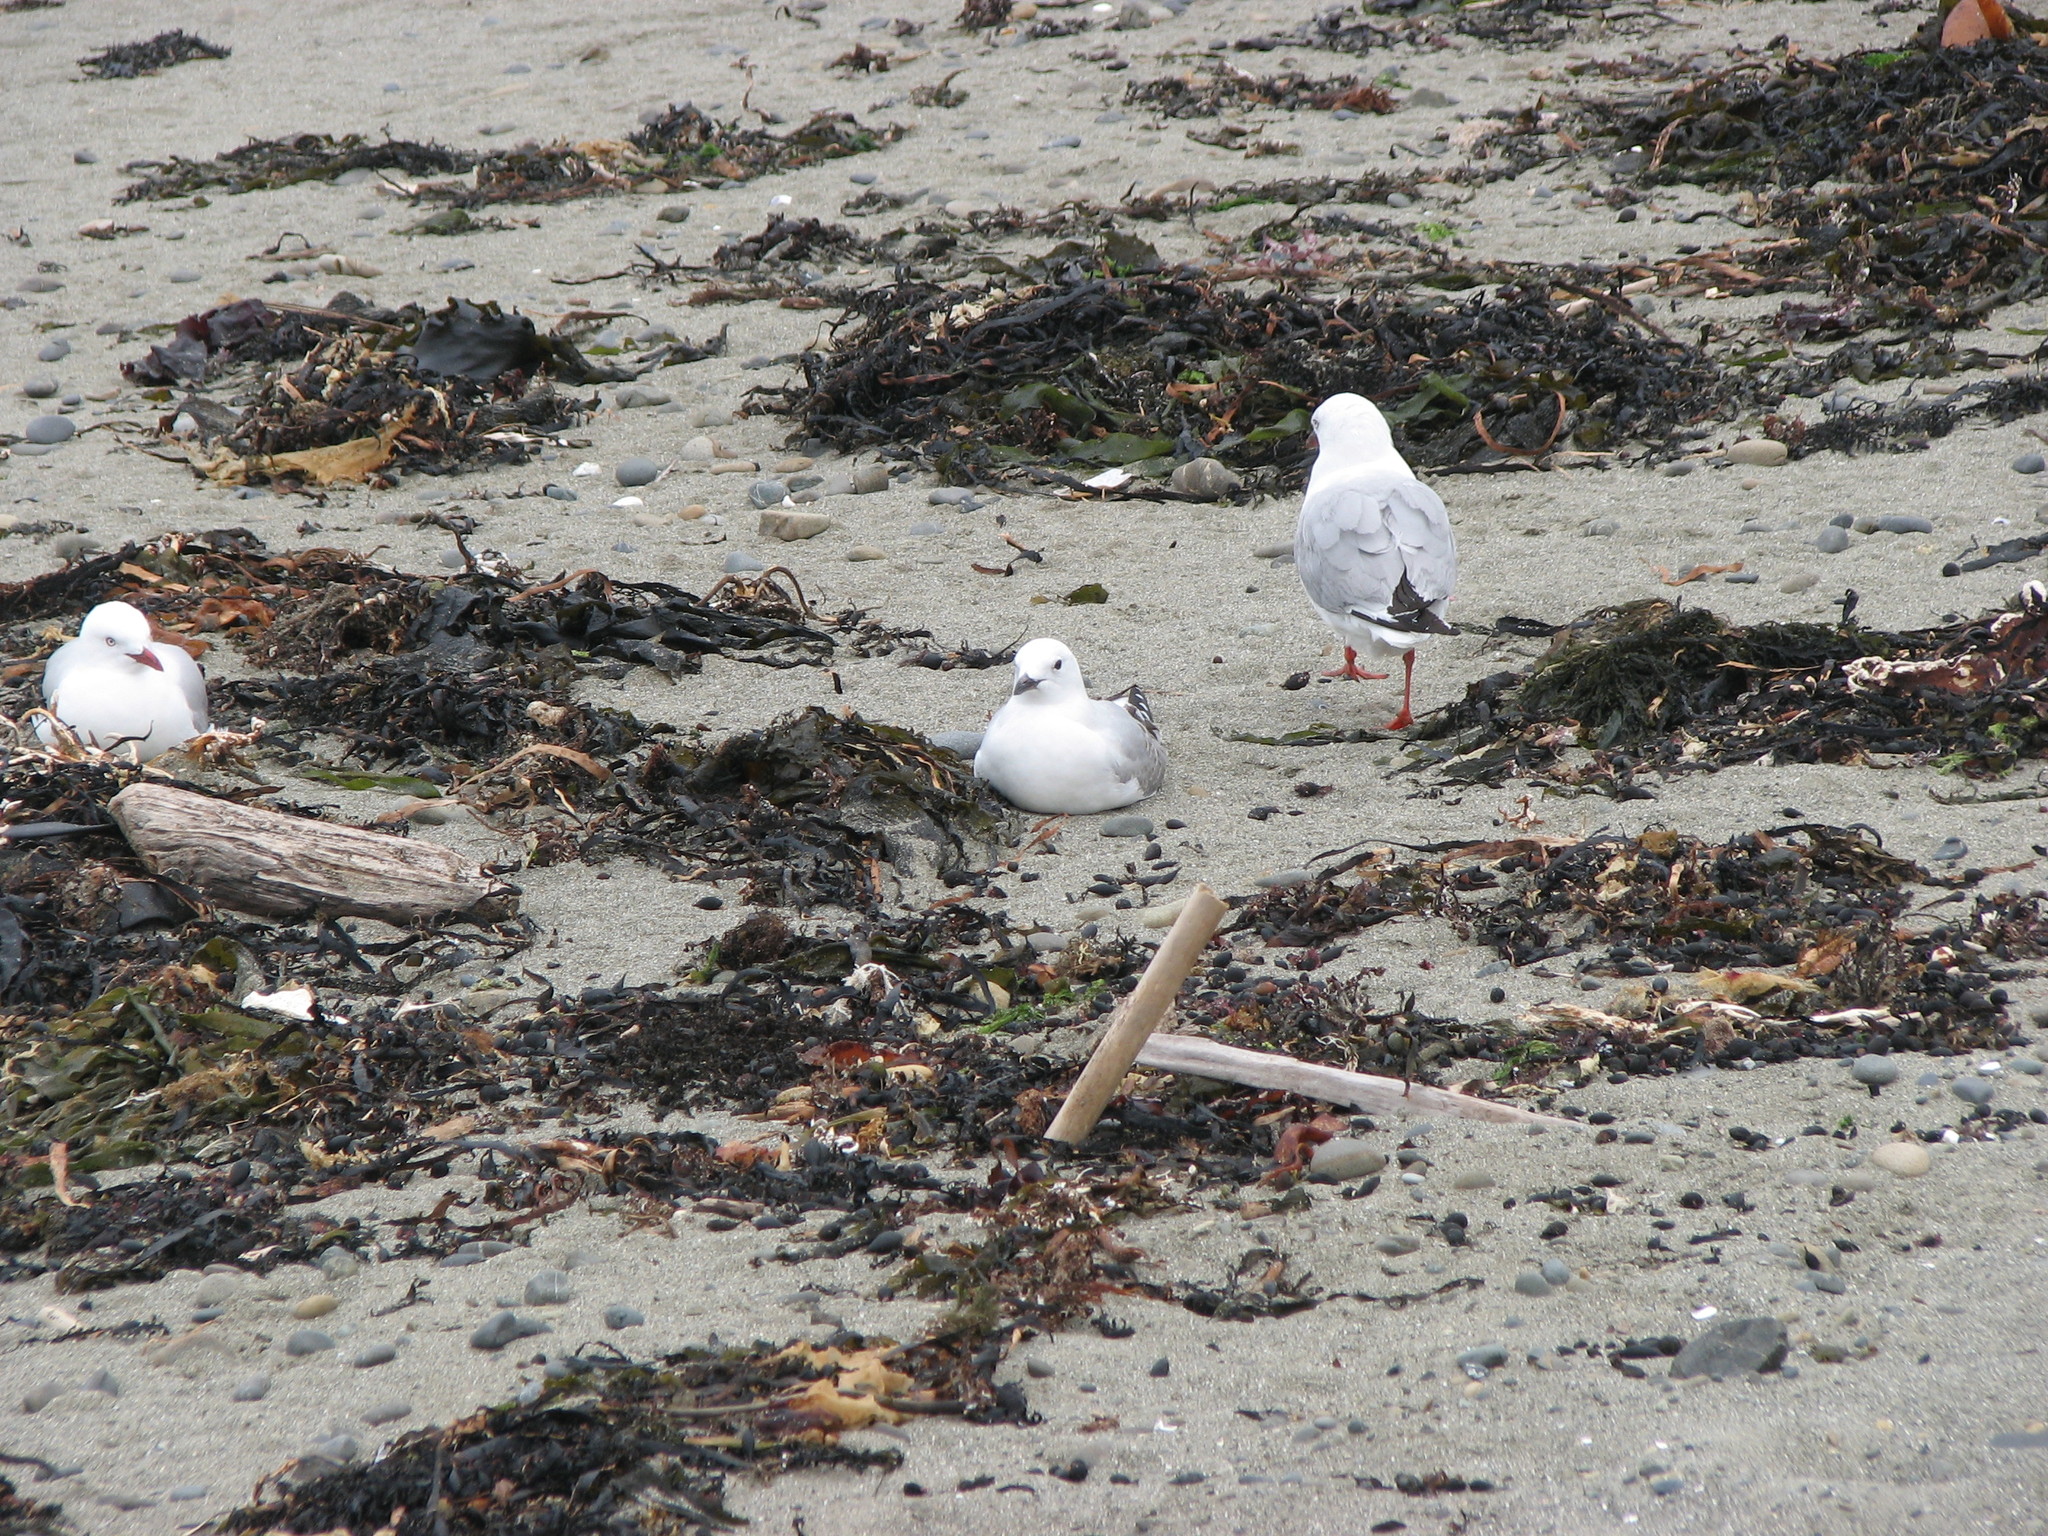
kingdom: Animalia
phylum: Chordata
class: Aves
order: Charadriiformes
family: Laridae
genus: Chroicocephalus
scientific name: Chroicocephalus novaehollandiae
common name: Silver gull
